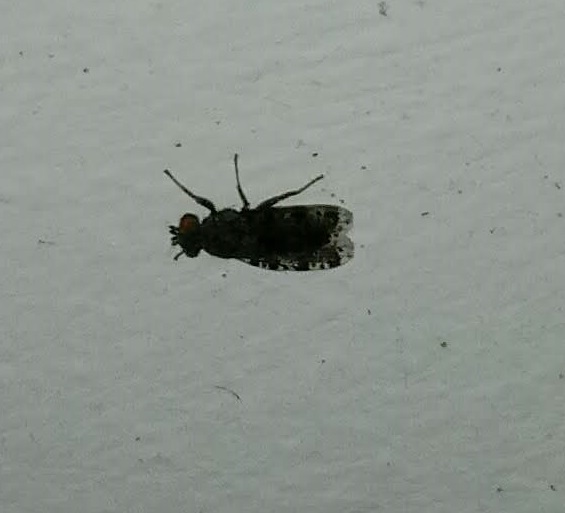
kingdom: Animalia
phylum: Arthropoda
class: Insecta
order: Diptera
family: Ulidiidae
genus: Callopistromyia
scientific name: Callopistromyia annulipes
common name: Peacock fly
